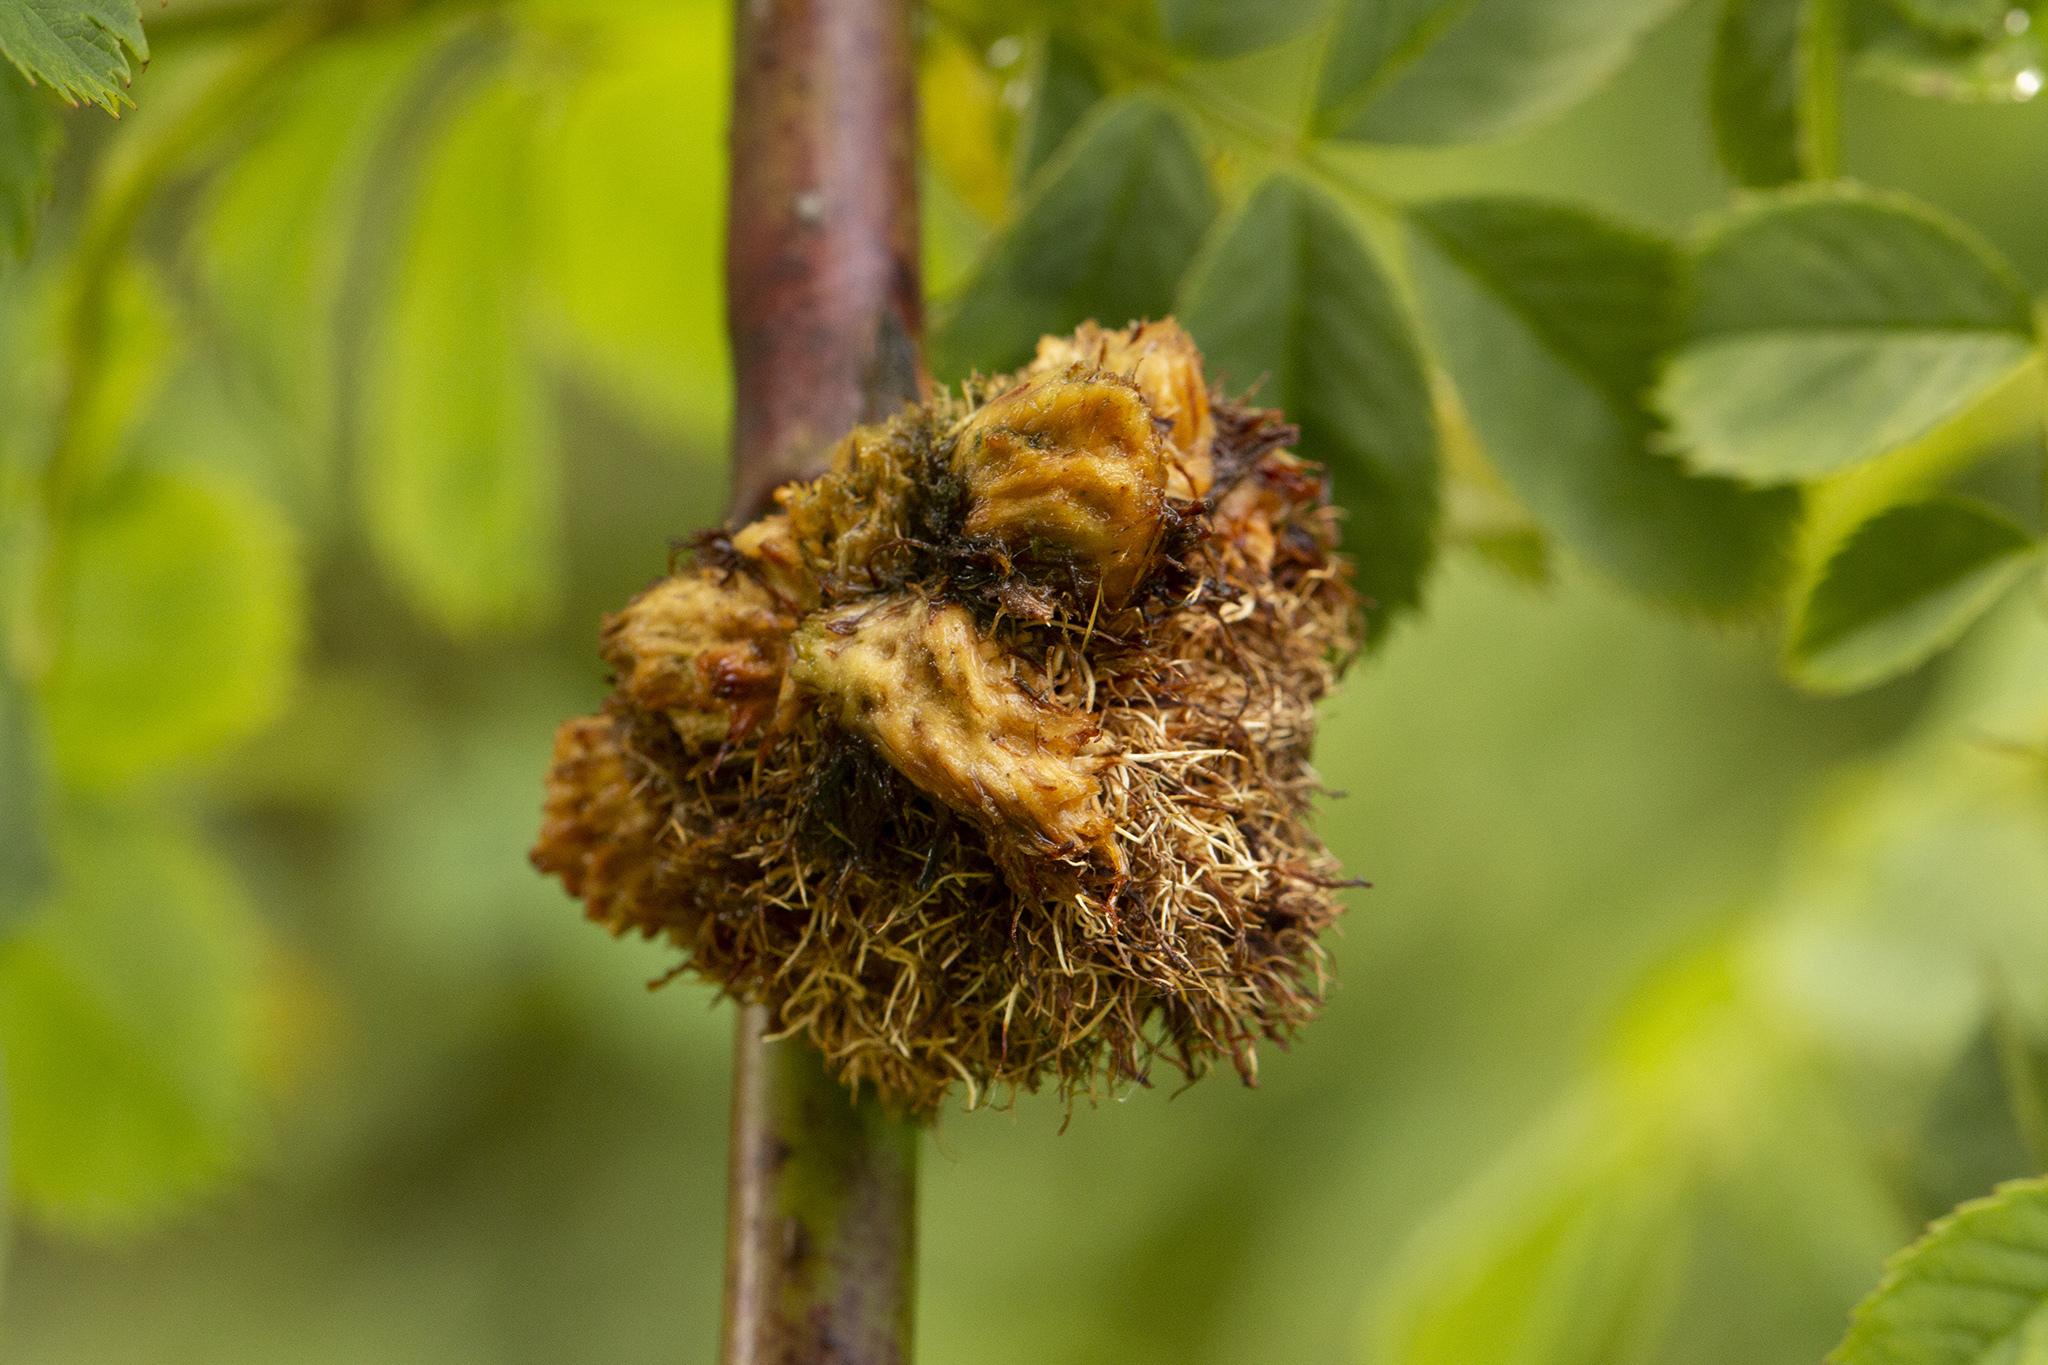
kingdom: Animalia
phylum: Arthropoda
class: Insecta
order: Hymenoptera
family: Cynipidae
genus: Diplolepis
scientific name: Diplolepis rosae
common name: Bedeguar gall
